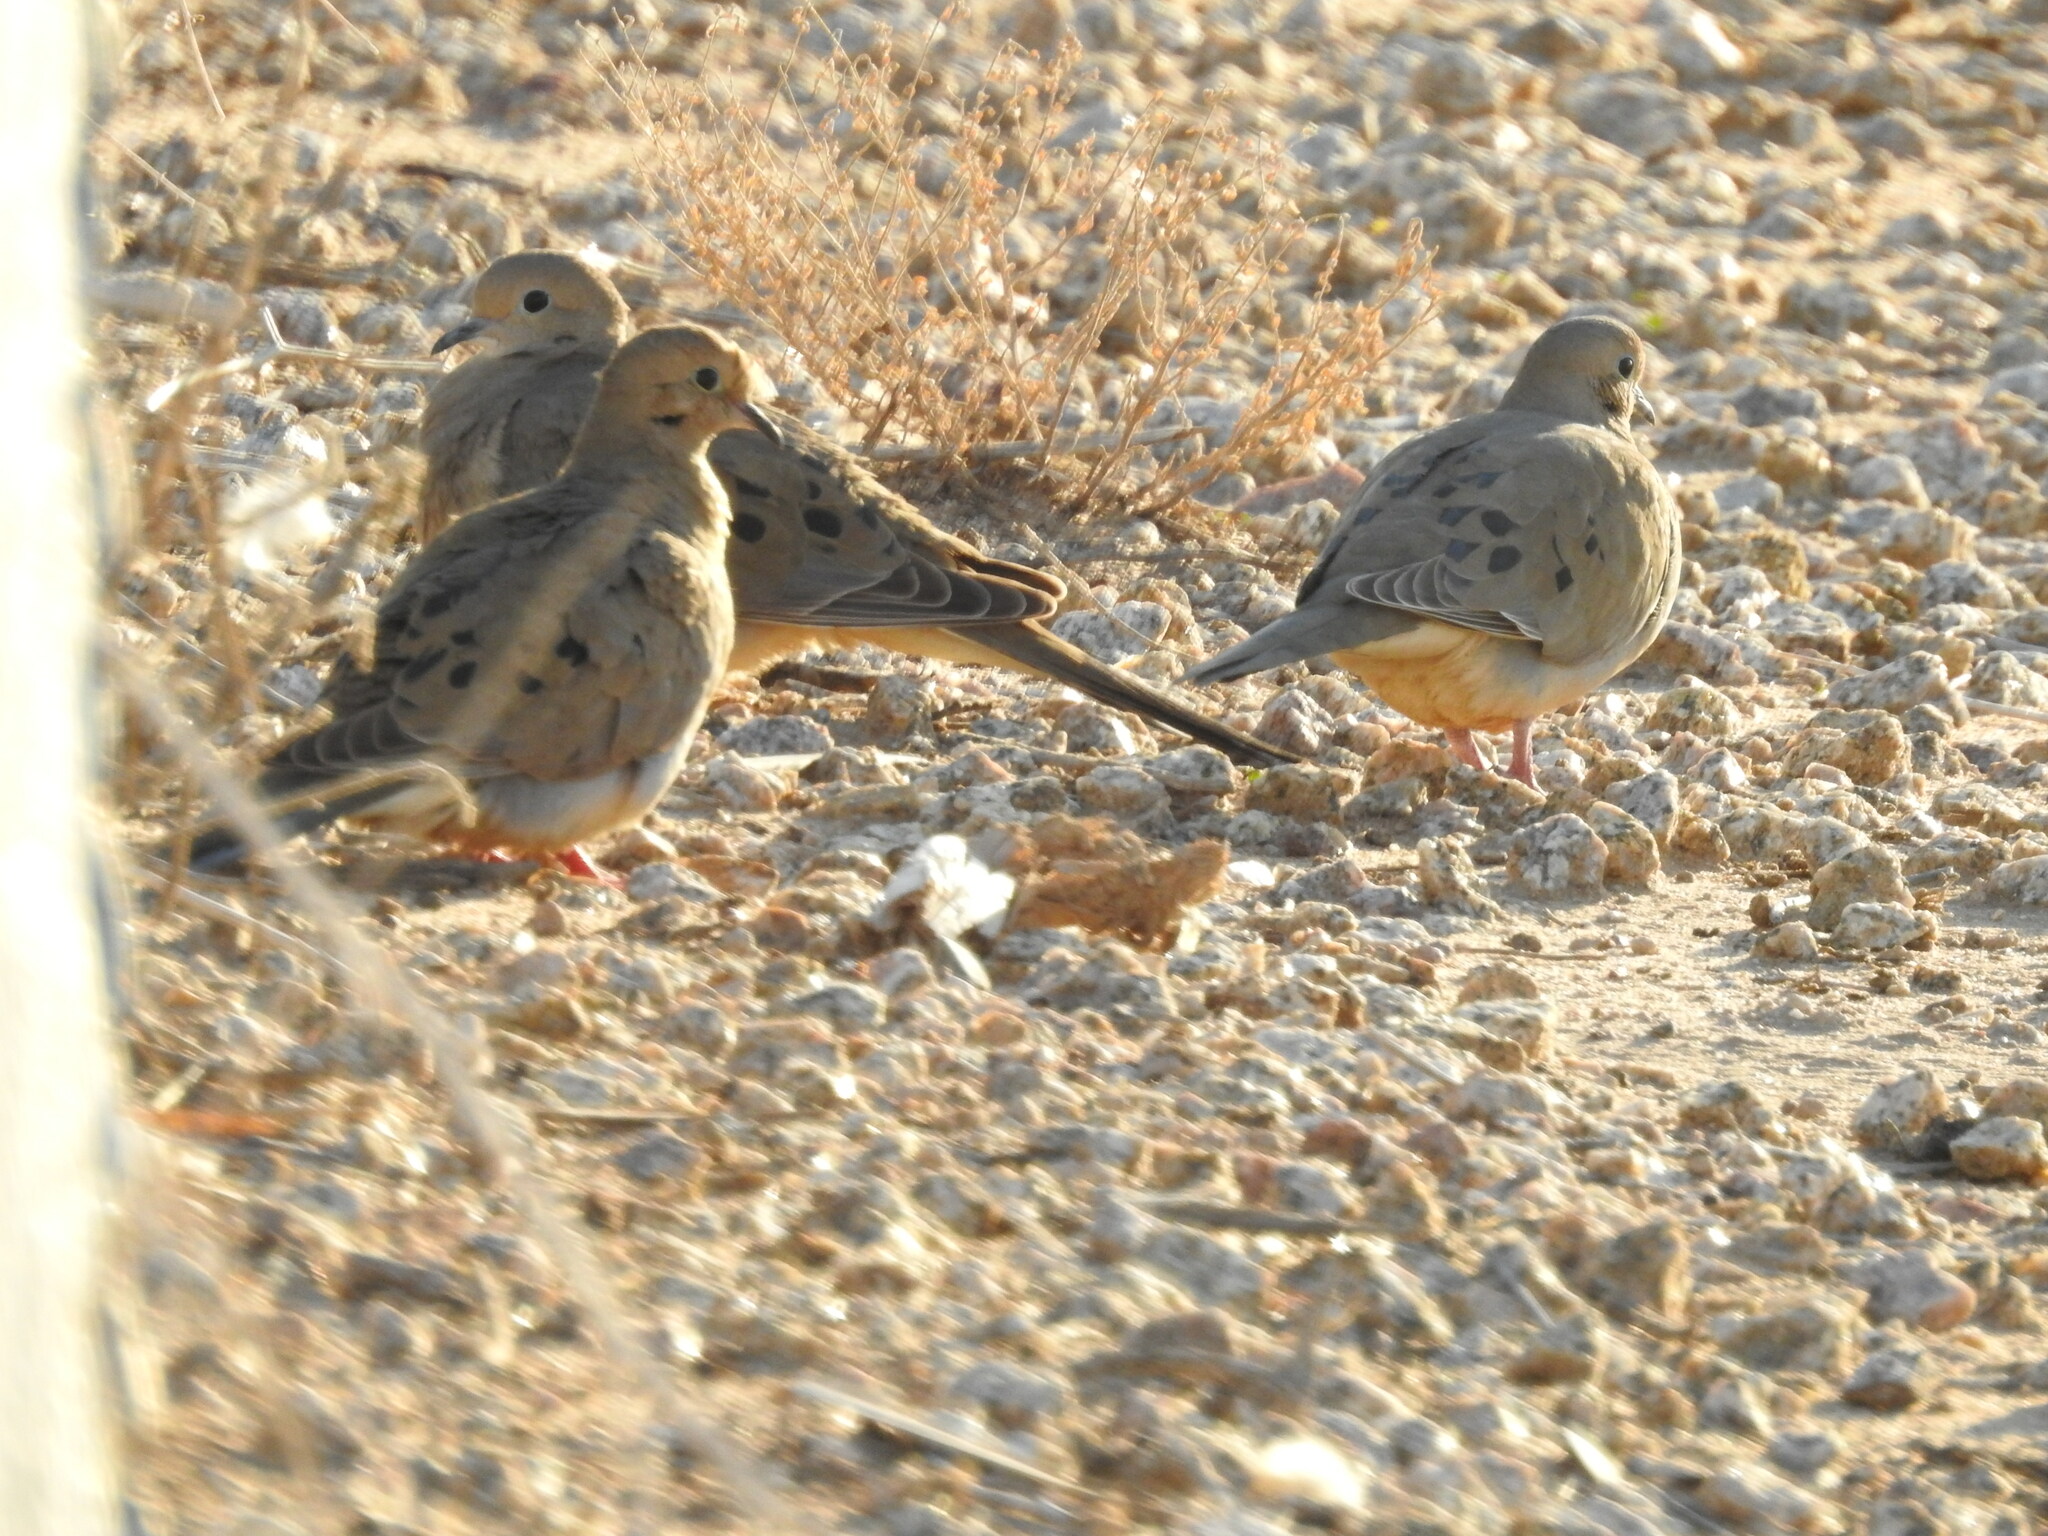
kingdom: Animalia
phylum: Chordata
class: Aves
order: Columbiformes
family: Columbidae
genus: Zenaida
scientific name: Zenaida macroura
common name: Mourning dove
